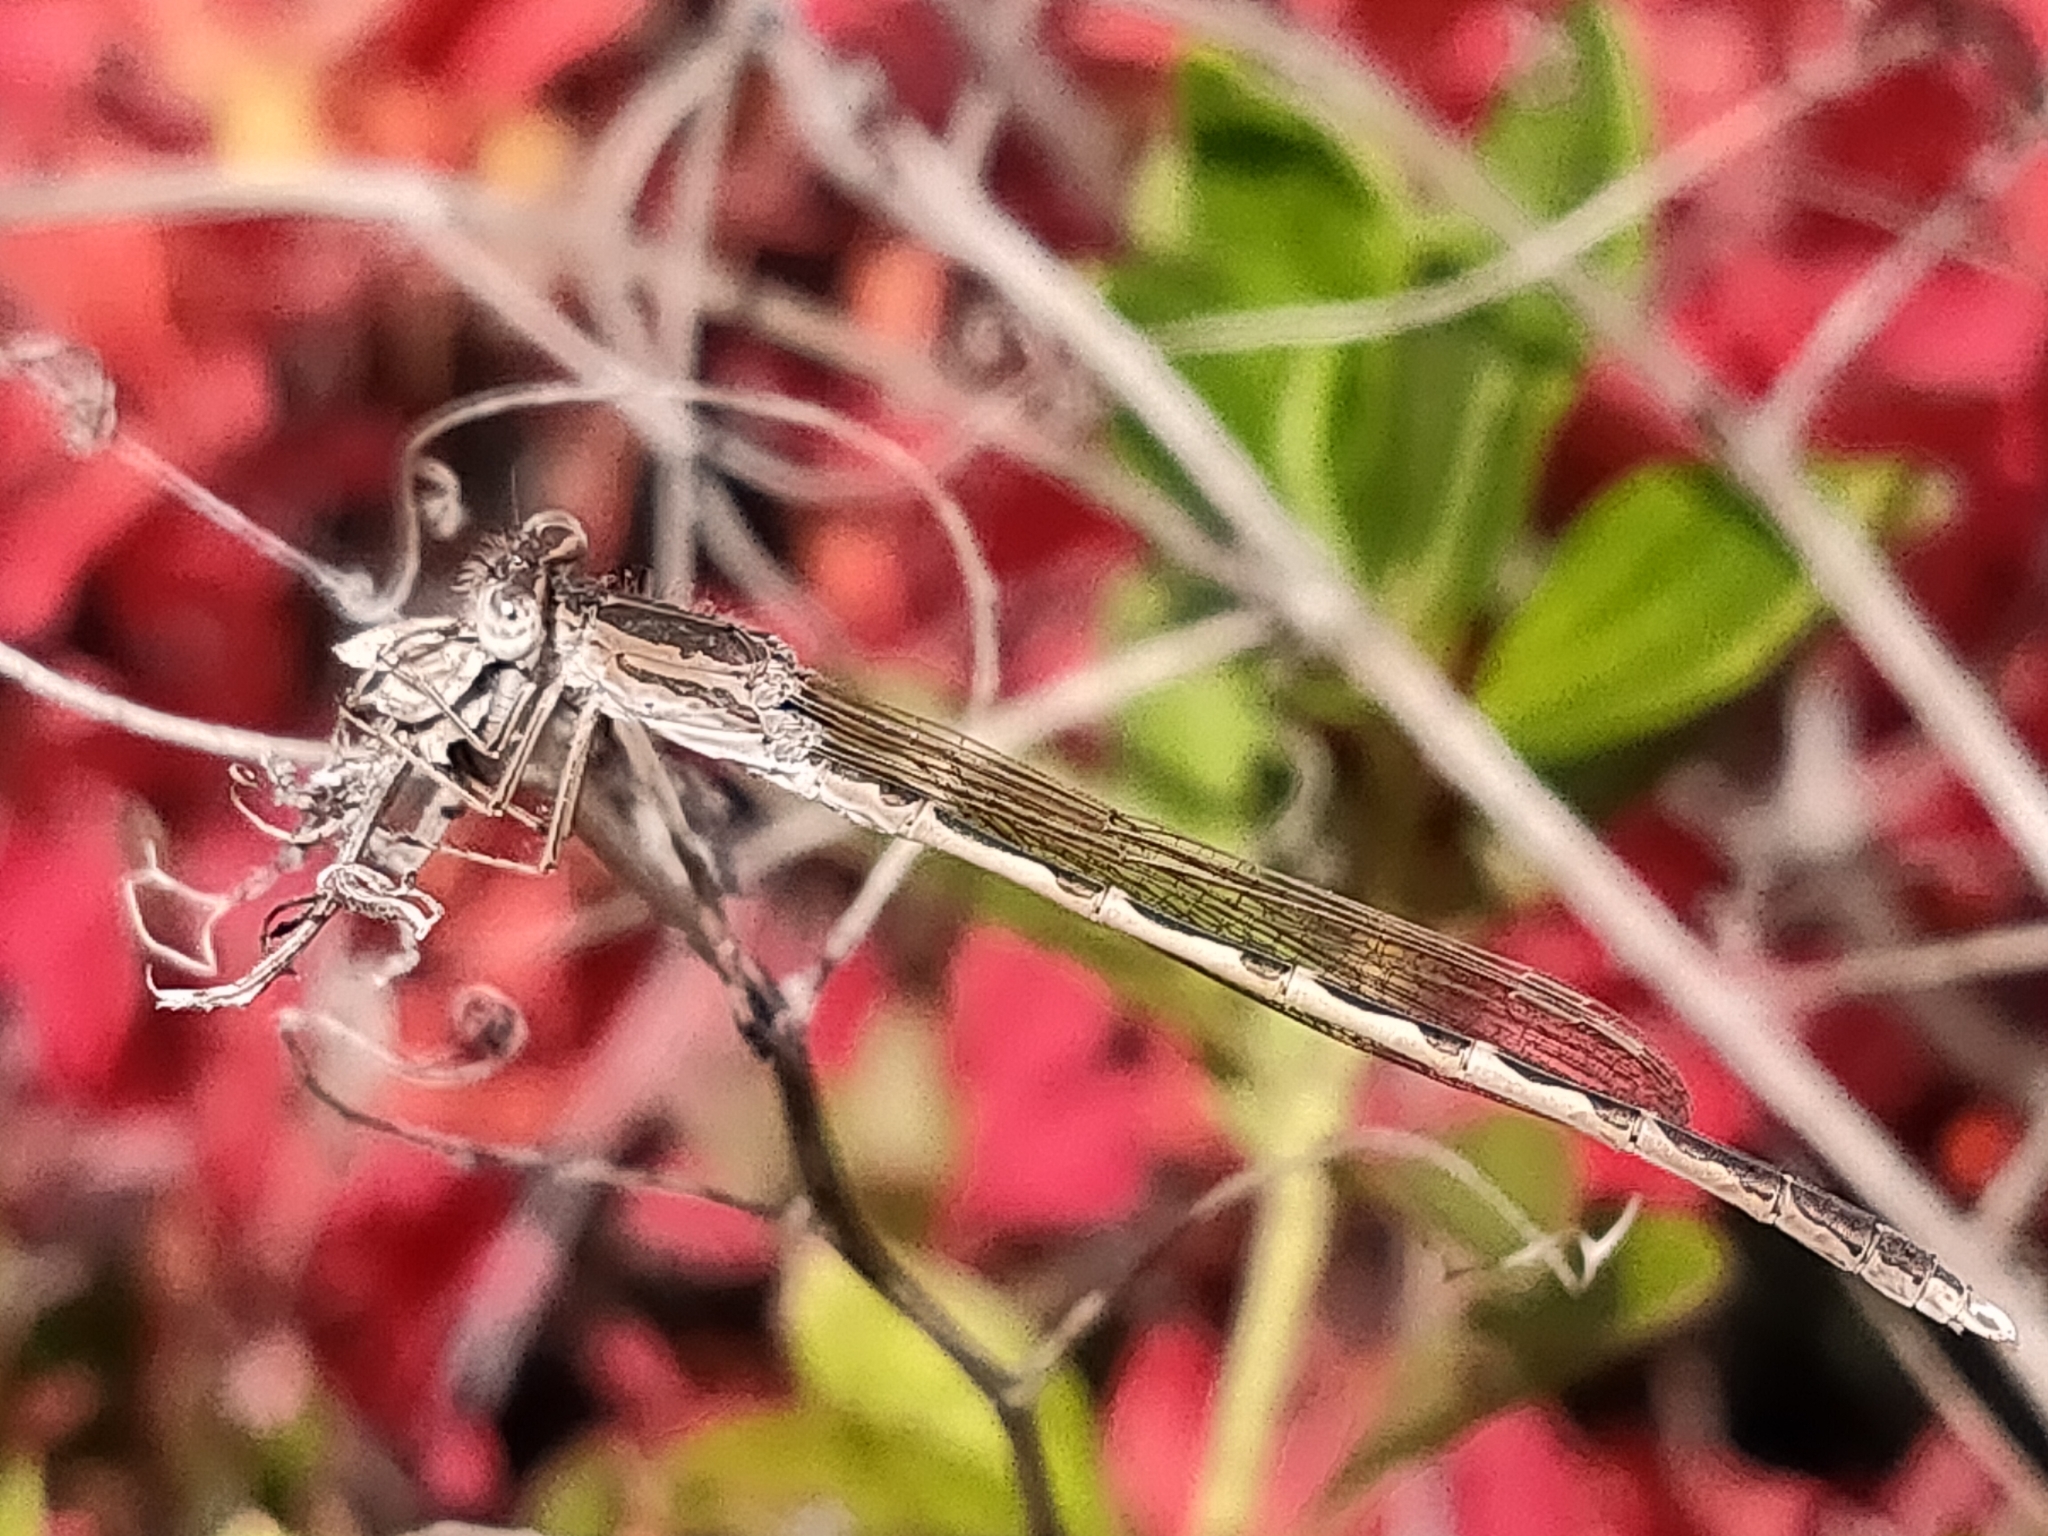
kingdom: Animalia
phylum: Arthropoda
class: Insecta
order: Odonata
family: Lestidae
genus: Sympecma
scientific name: Sympecma paedisca
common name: Siberian winter damsel
